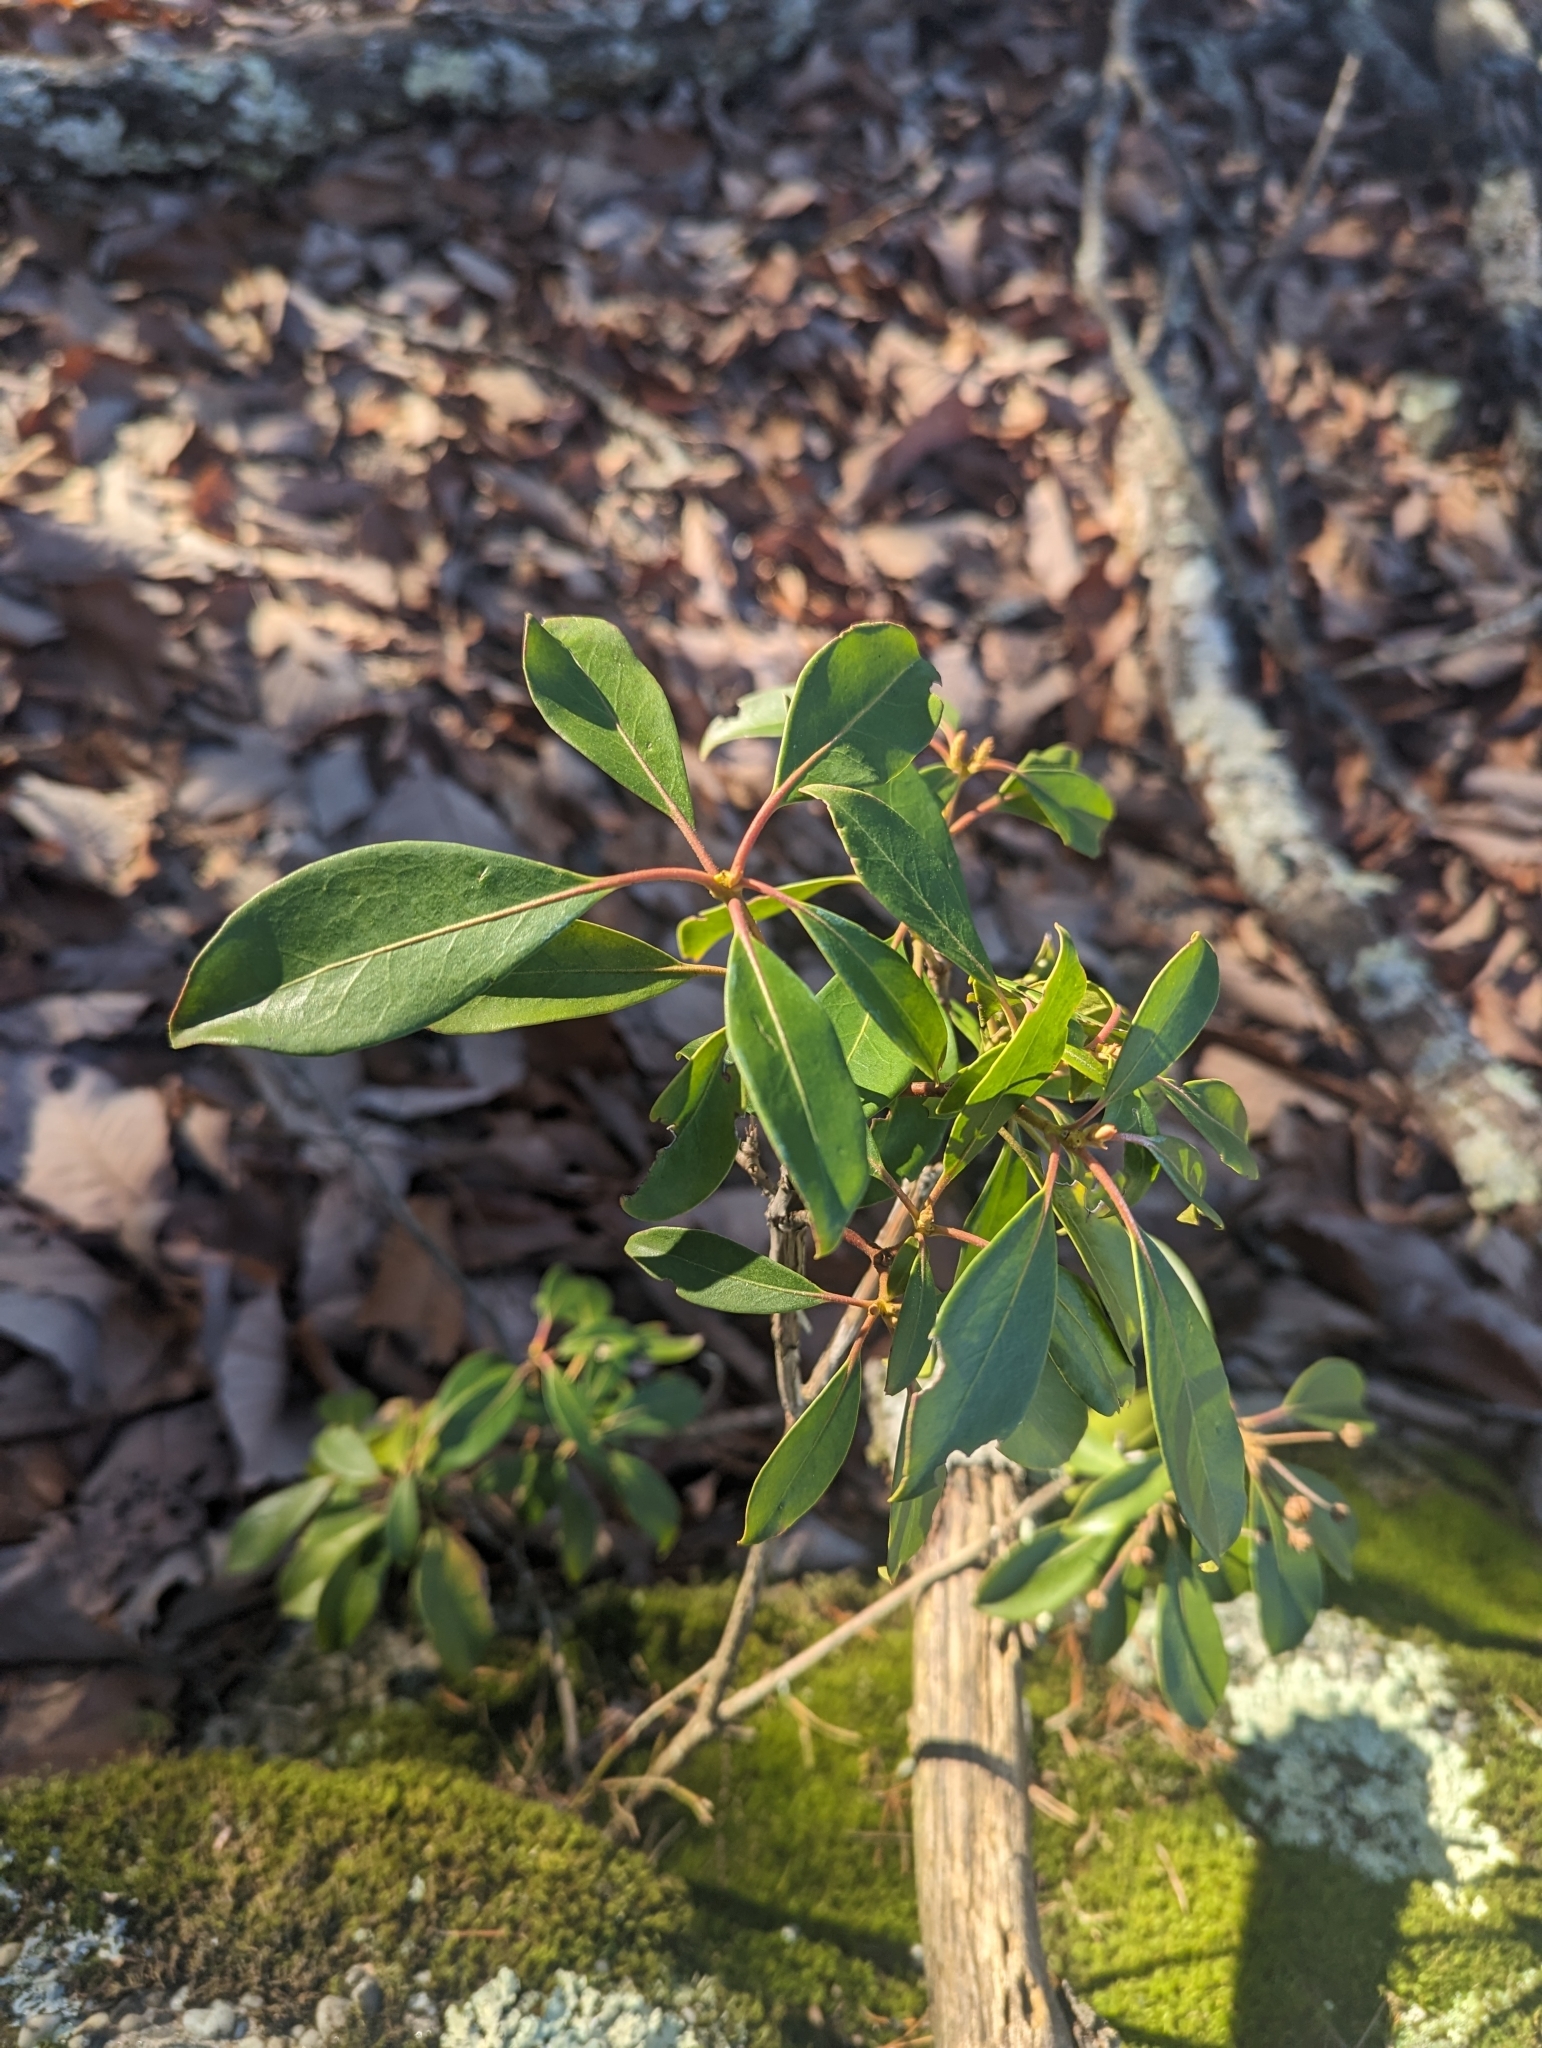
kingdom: Plantae
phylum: Tracheophyta
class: Magnoliopsida
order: Ericales
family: Ericaceae
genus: Kalmia
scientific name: Kalmia latifolia
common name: Mountain-laurel
